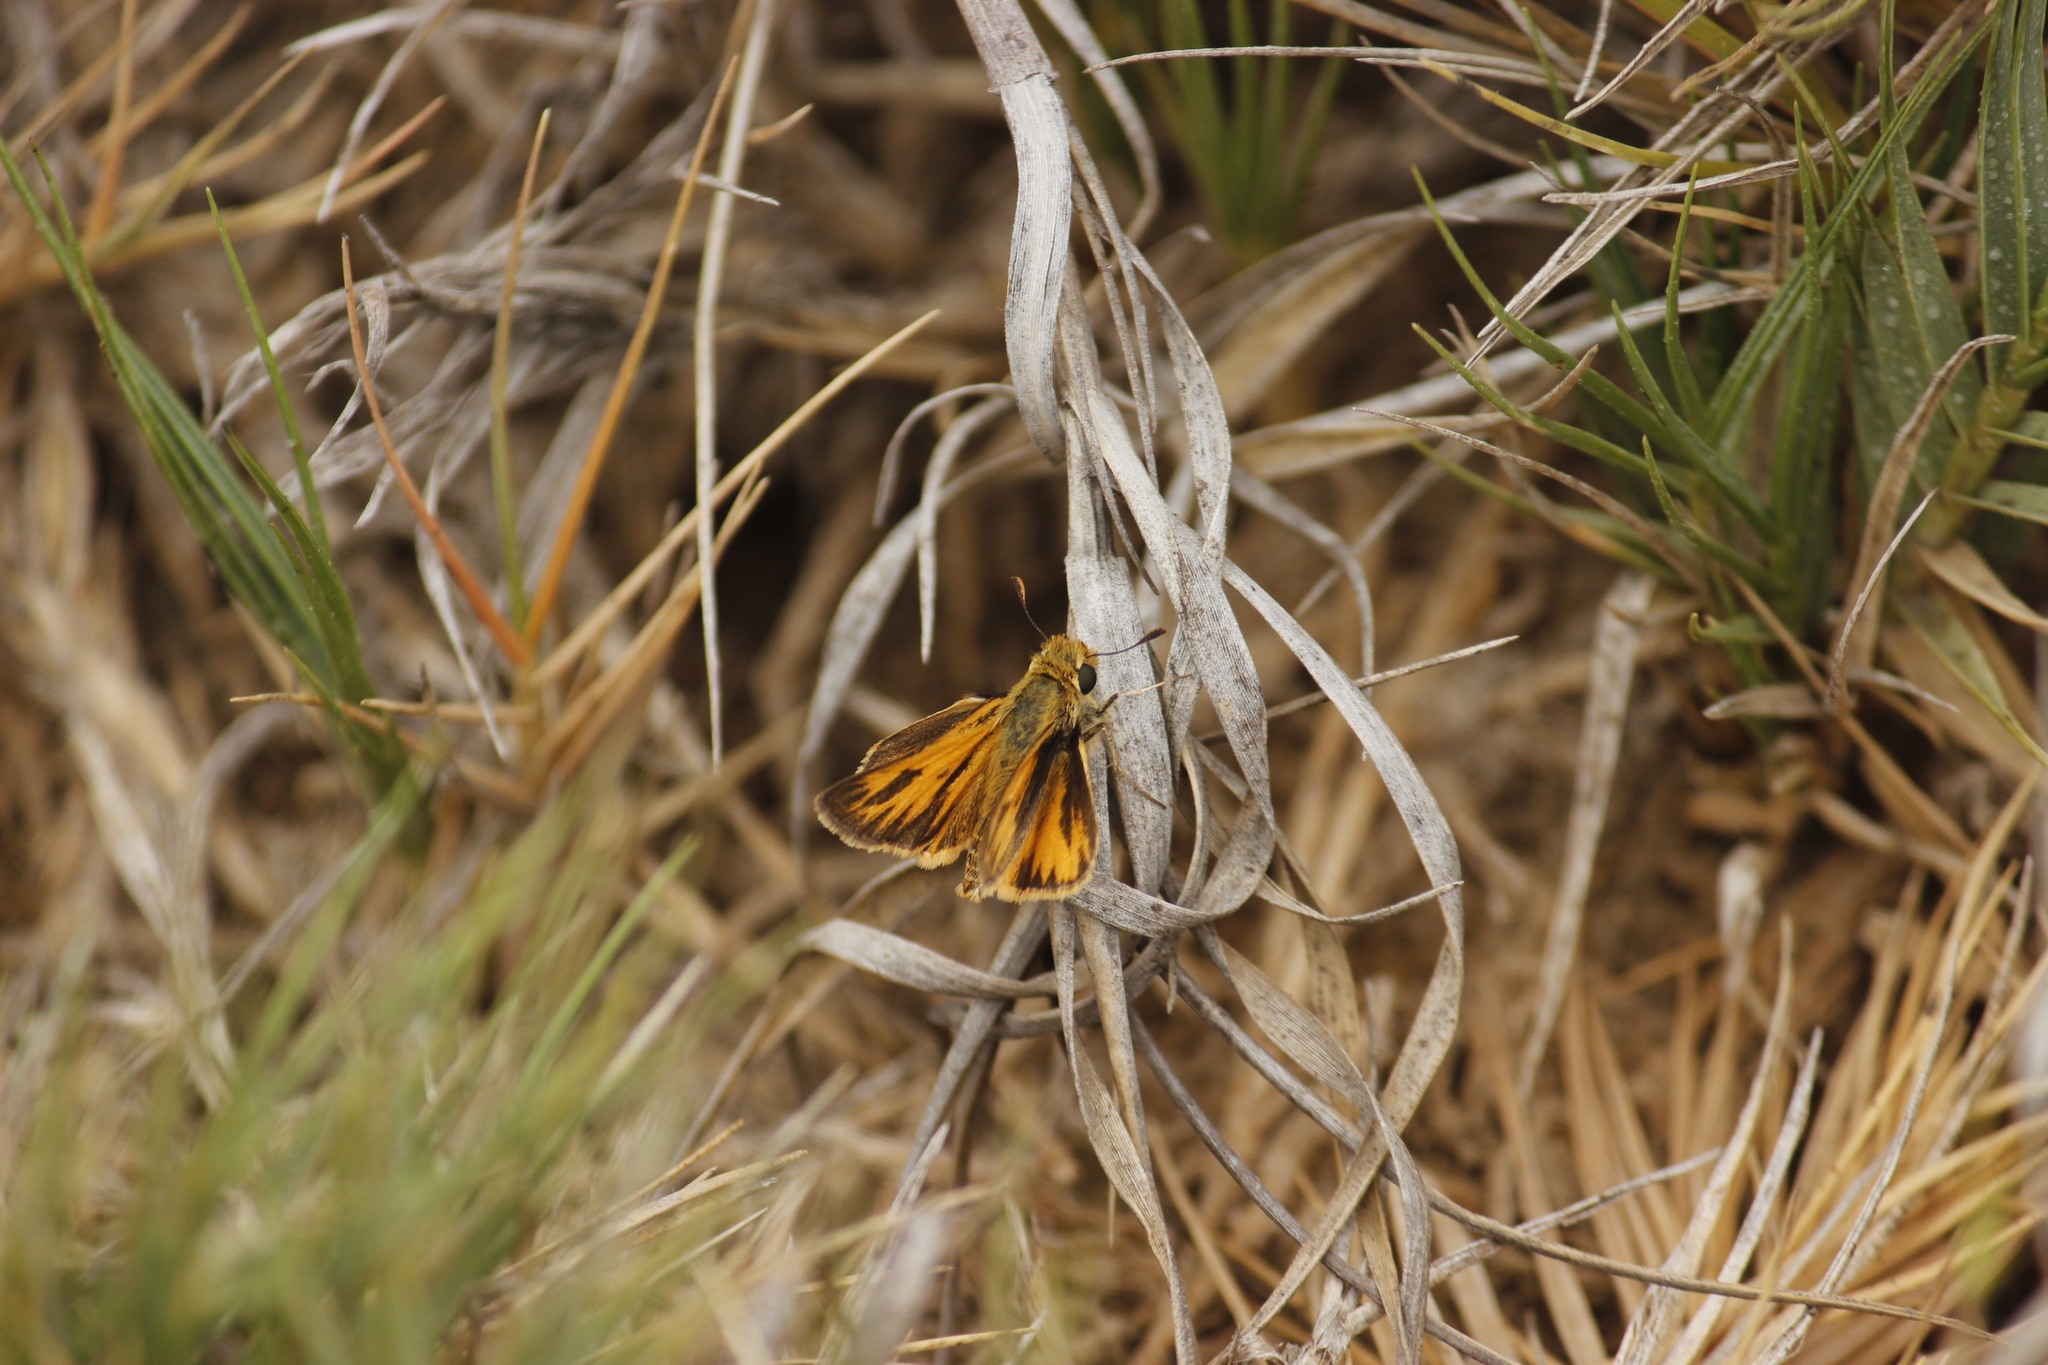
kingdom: Animalia
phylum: Arthropoda
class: Insecta
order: Lepidoptera
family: Hesperiidae
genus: Hylephila
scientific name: Hylephila phyleus
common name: Fiery skipper
